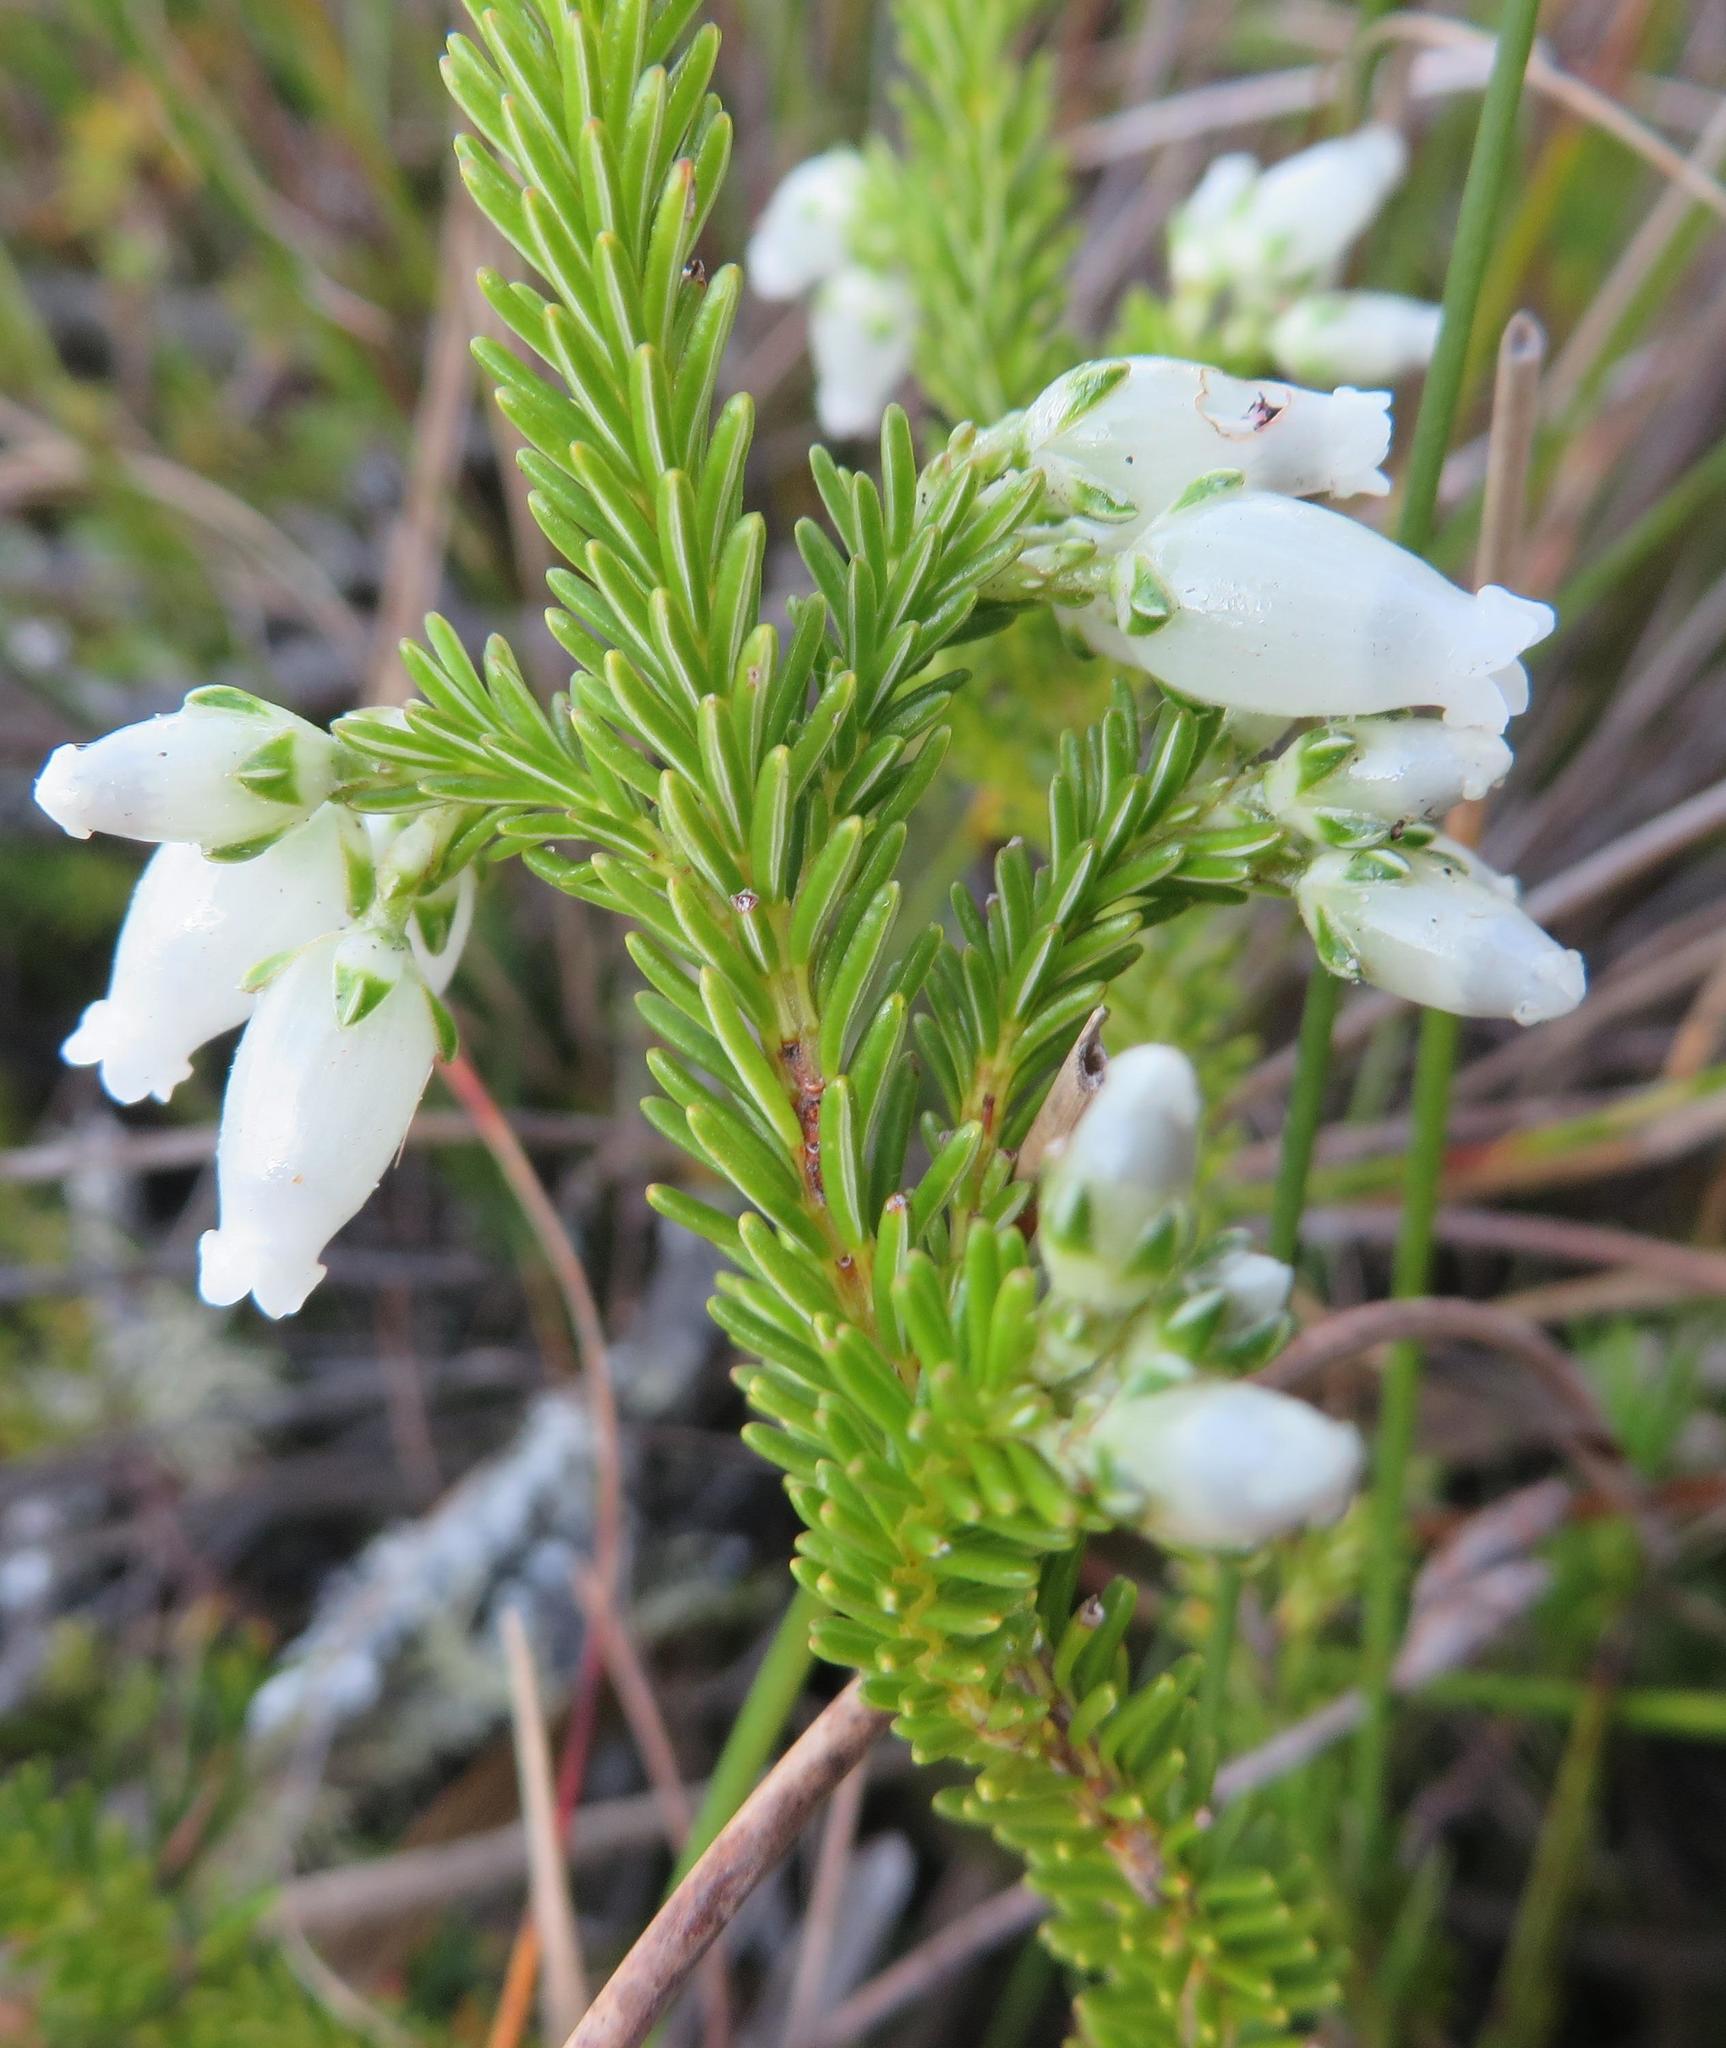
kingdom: Plantae
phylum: Tracheophyta
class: Magnoliopsida
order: Ericales
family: Ericaceae
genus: Erica
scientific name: Erica physodes
